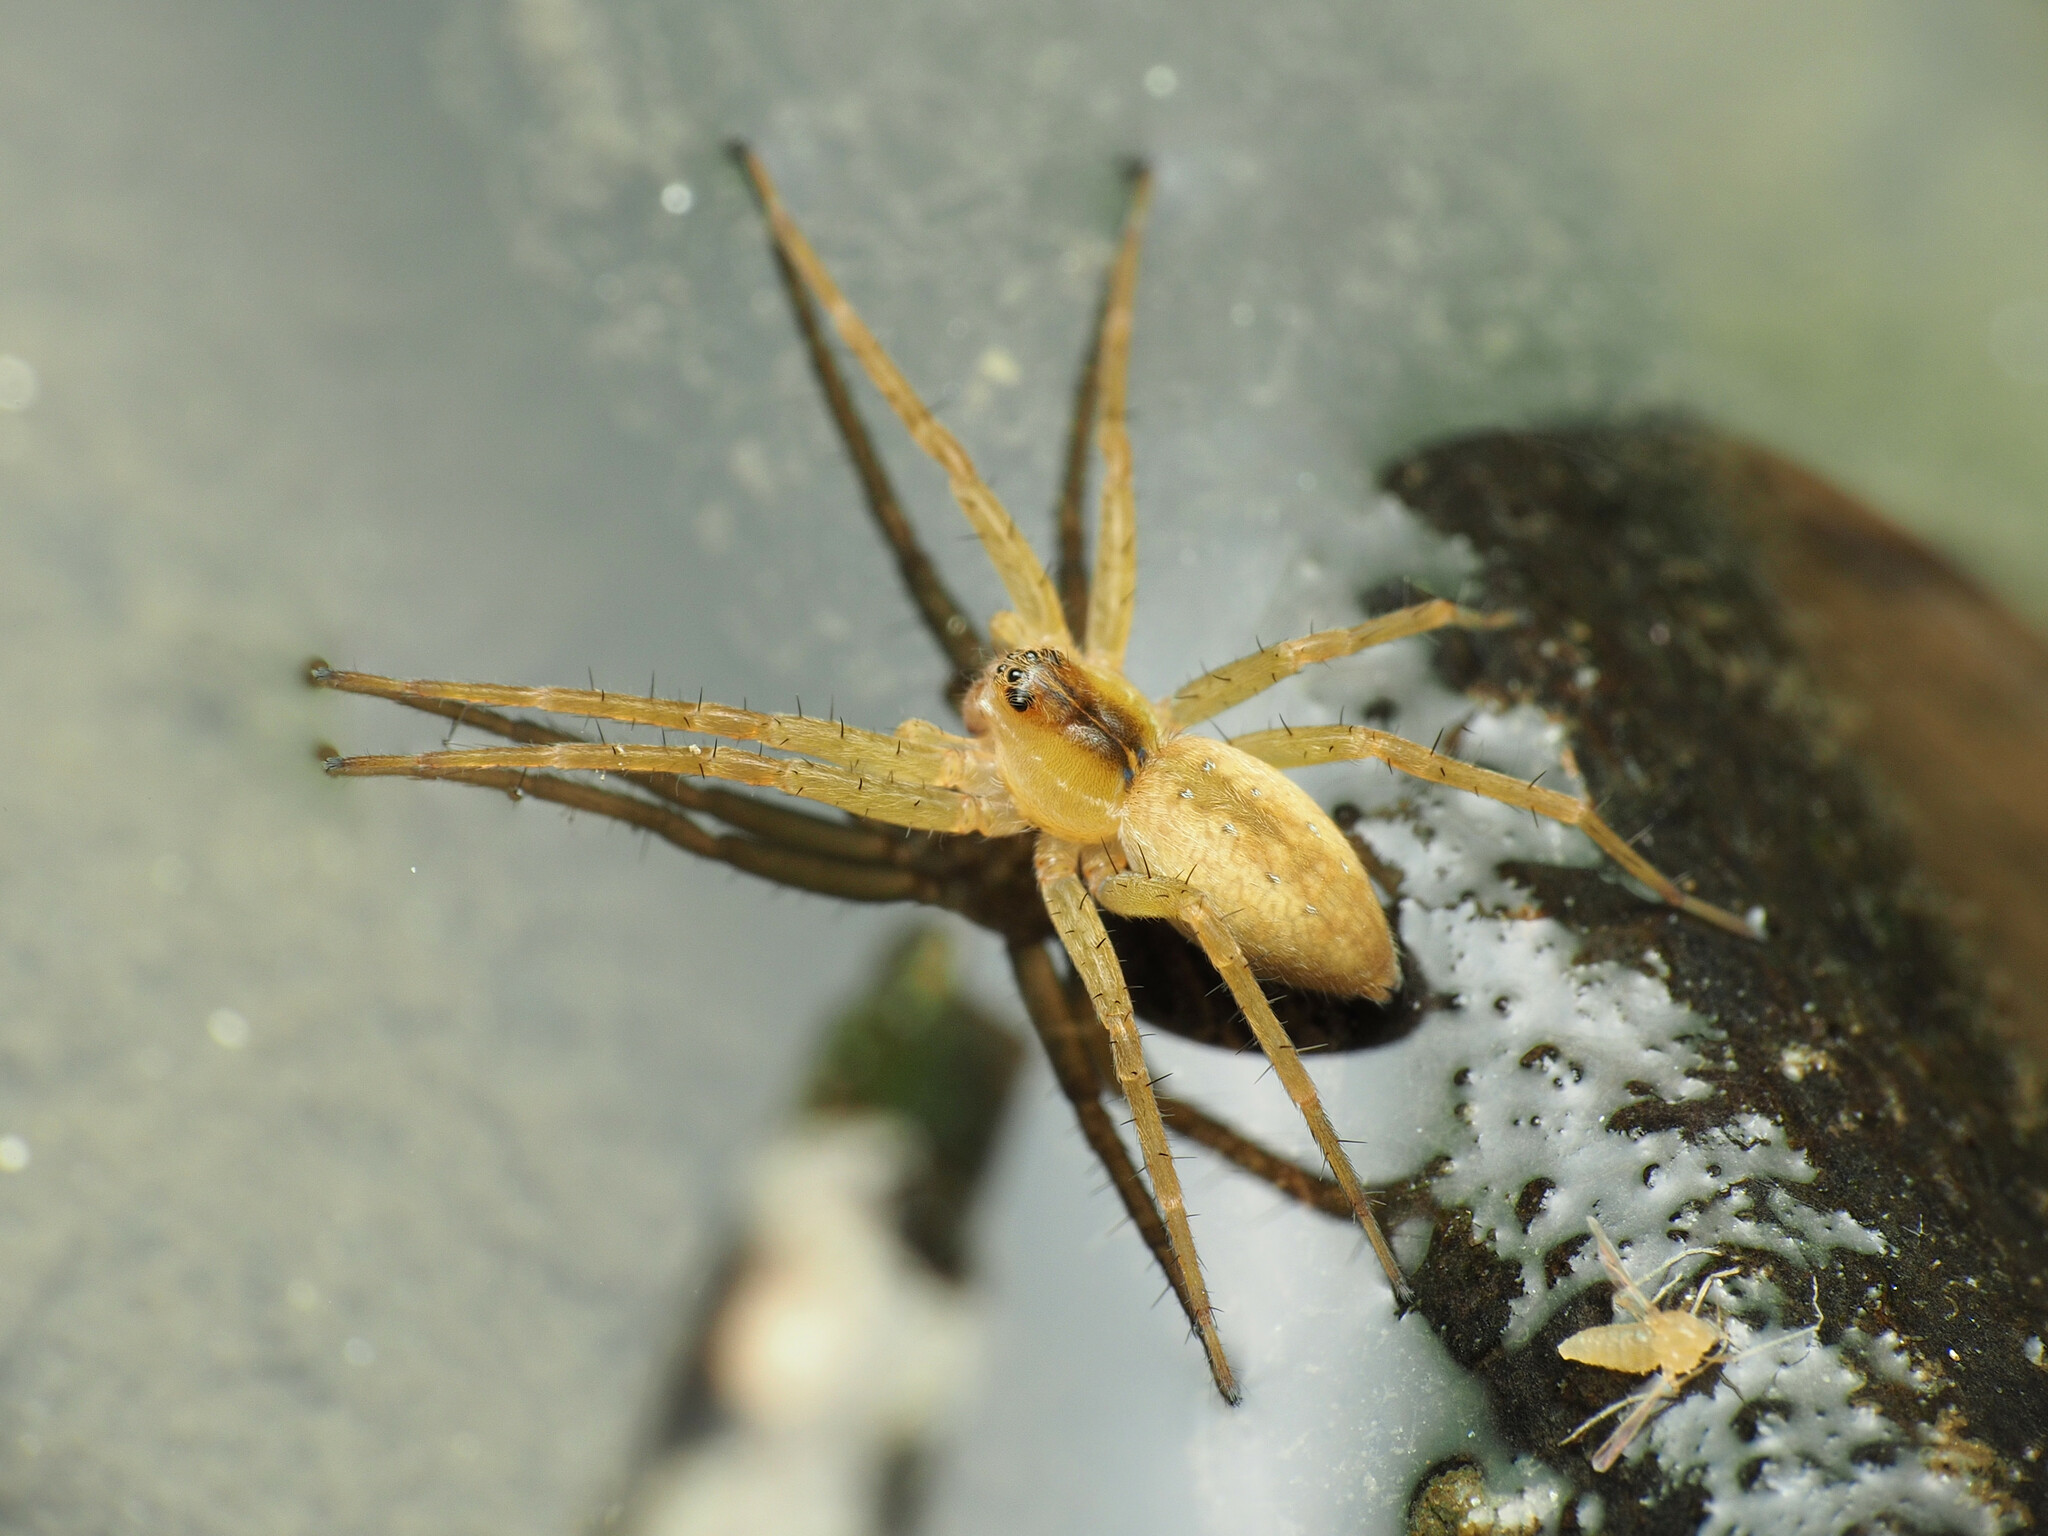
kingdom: Animalia
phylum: Arthropoda
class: Arachnida
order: Araneae
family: Pisauridae
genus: Dolomedes
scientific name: Dolomedes triton
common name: Six-spotted fishing spider
